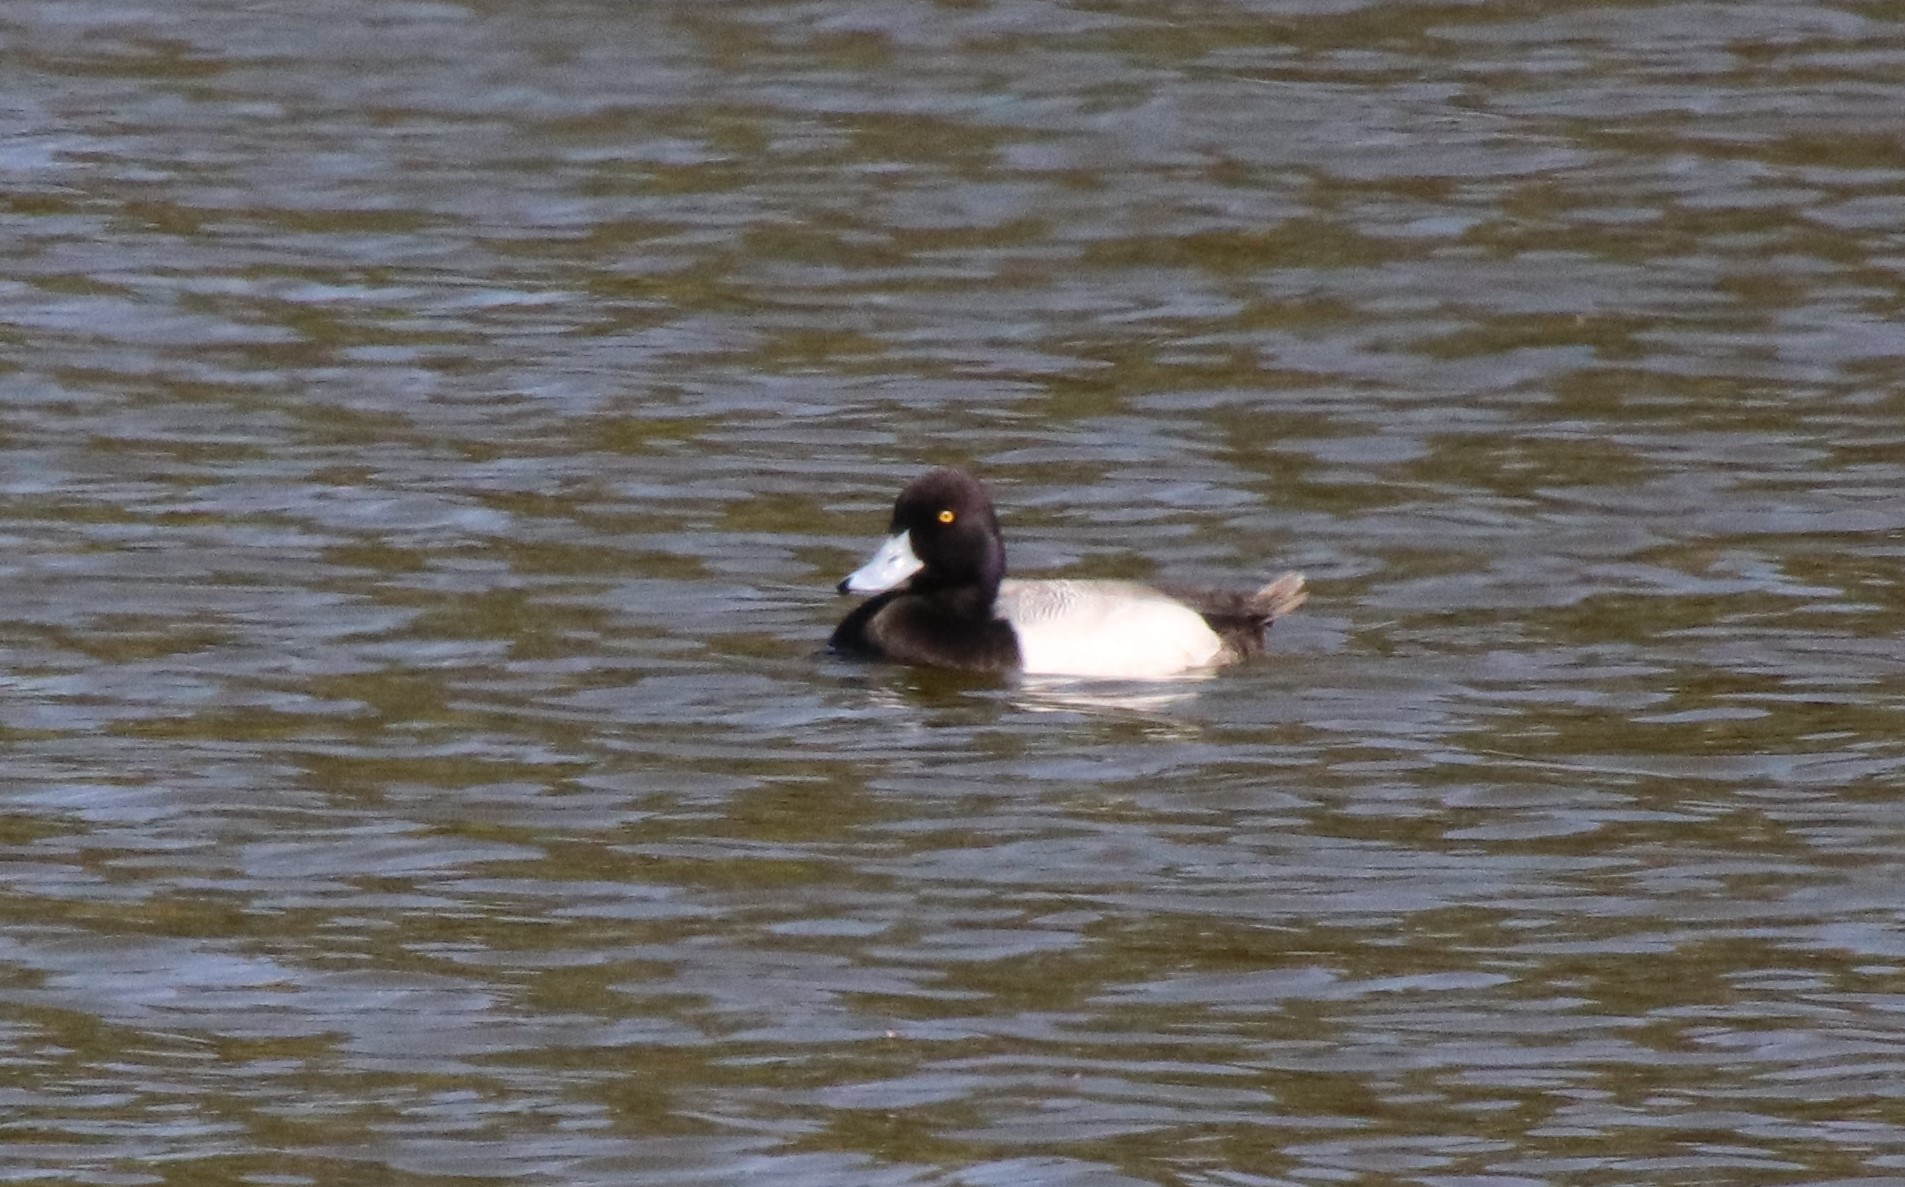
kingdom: Animalia
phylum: Chordata
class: Aves
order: Anseriformes
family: Anatidae
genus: Aythya
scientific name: Aythya affinis
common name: Lesser scaup
